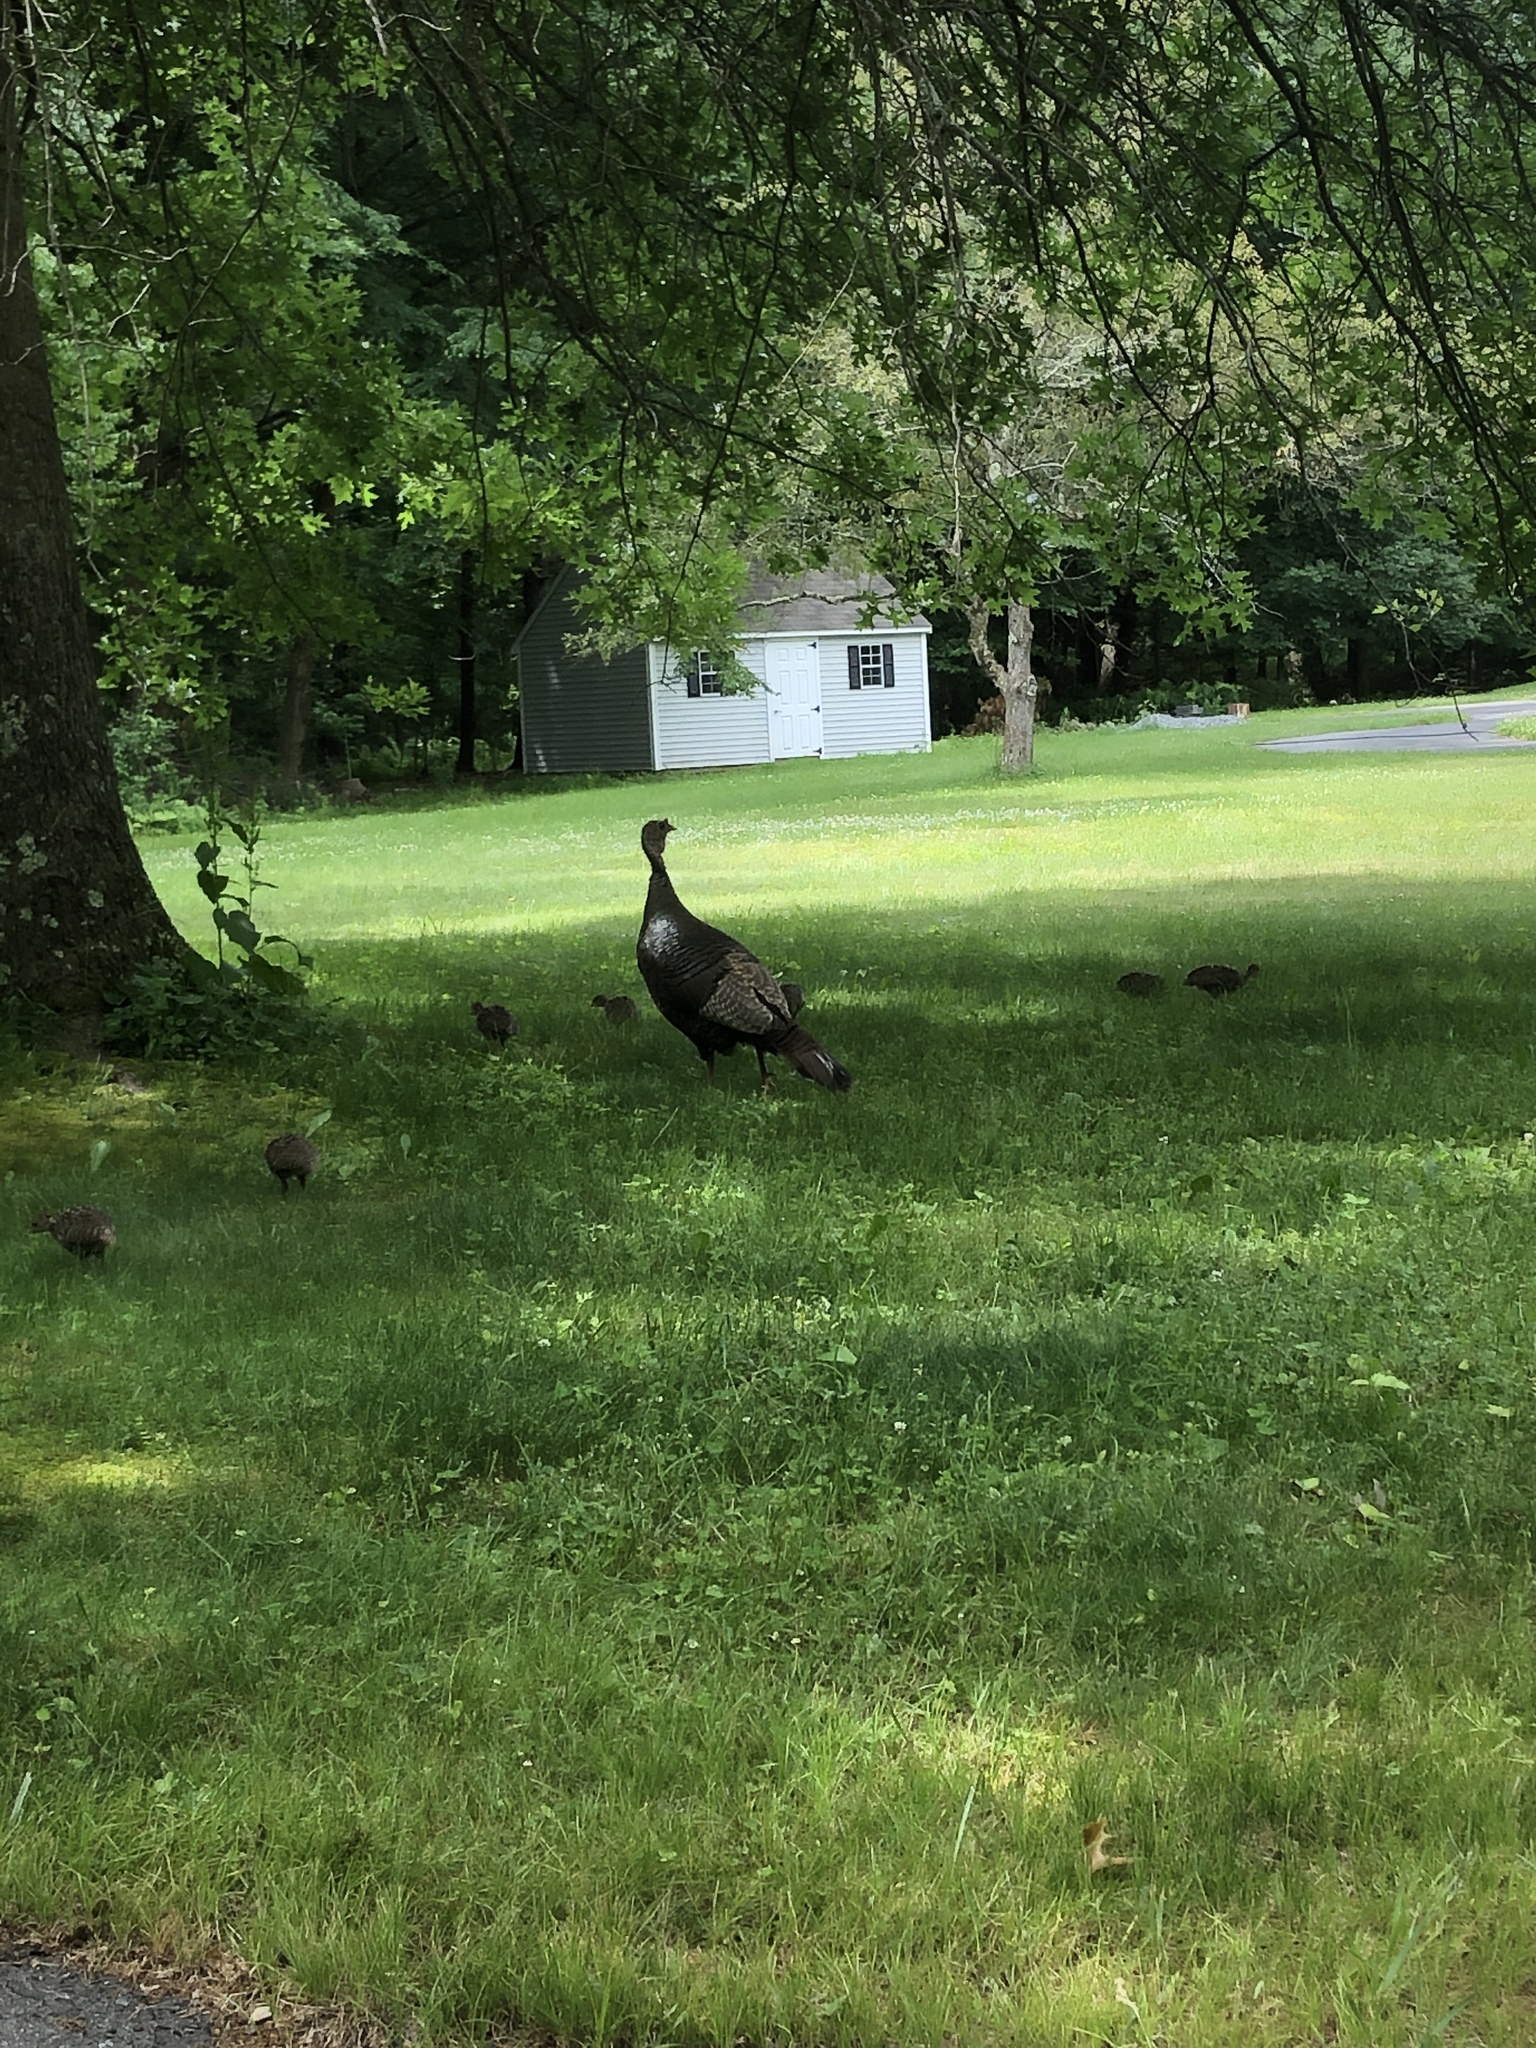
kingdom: Animalia
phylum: Chordata
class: Aves
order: Galliformes
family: Phasianidae
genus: Meleagris
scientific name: Meleagris gallopavo
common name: Wild turkey
